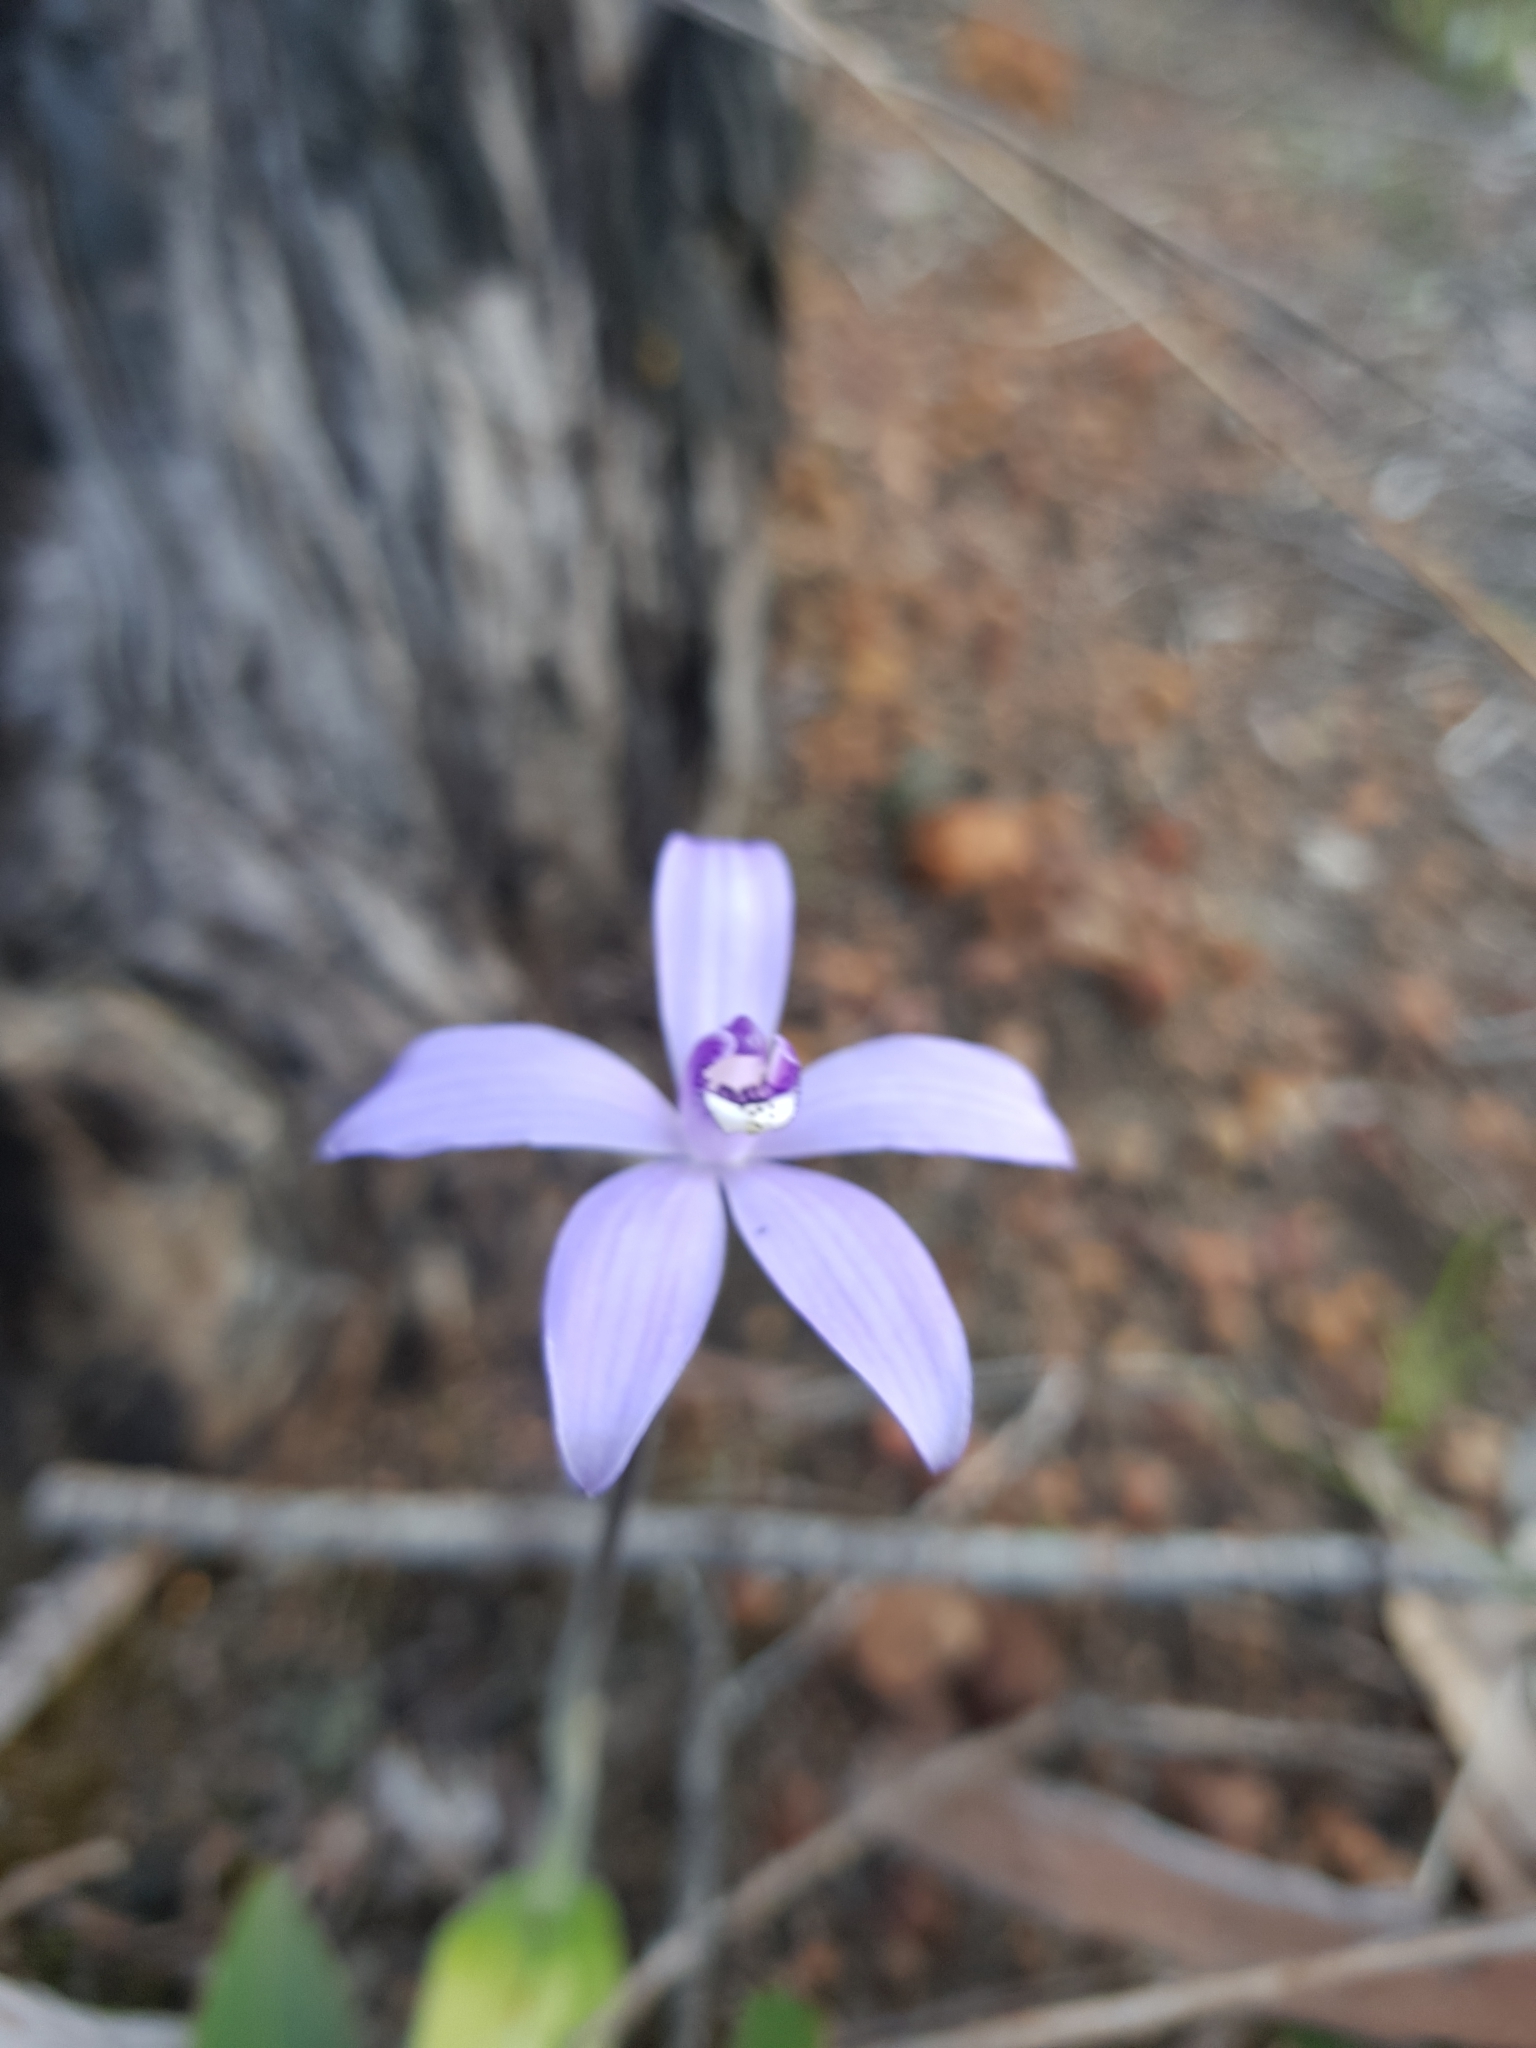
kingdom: Plantae
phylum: Tracheophyta
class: Liliopsida
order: Asparagales
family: Orchidaceae
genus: Caladenia
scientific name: Caladenia sericea
